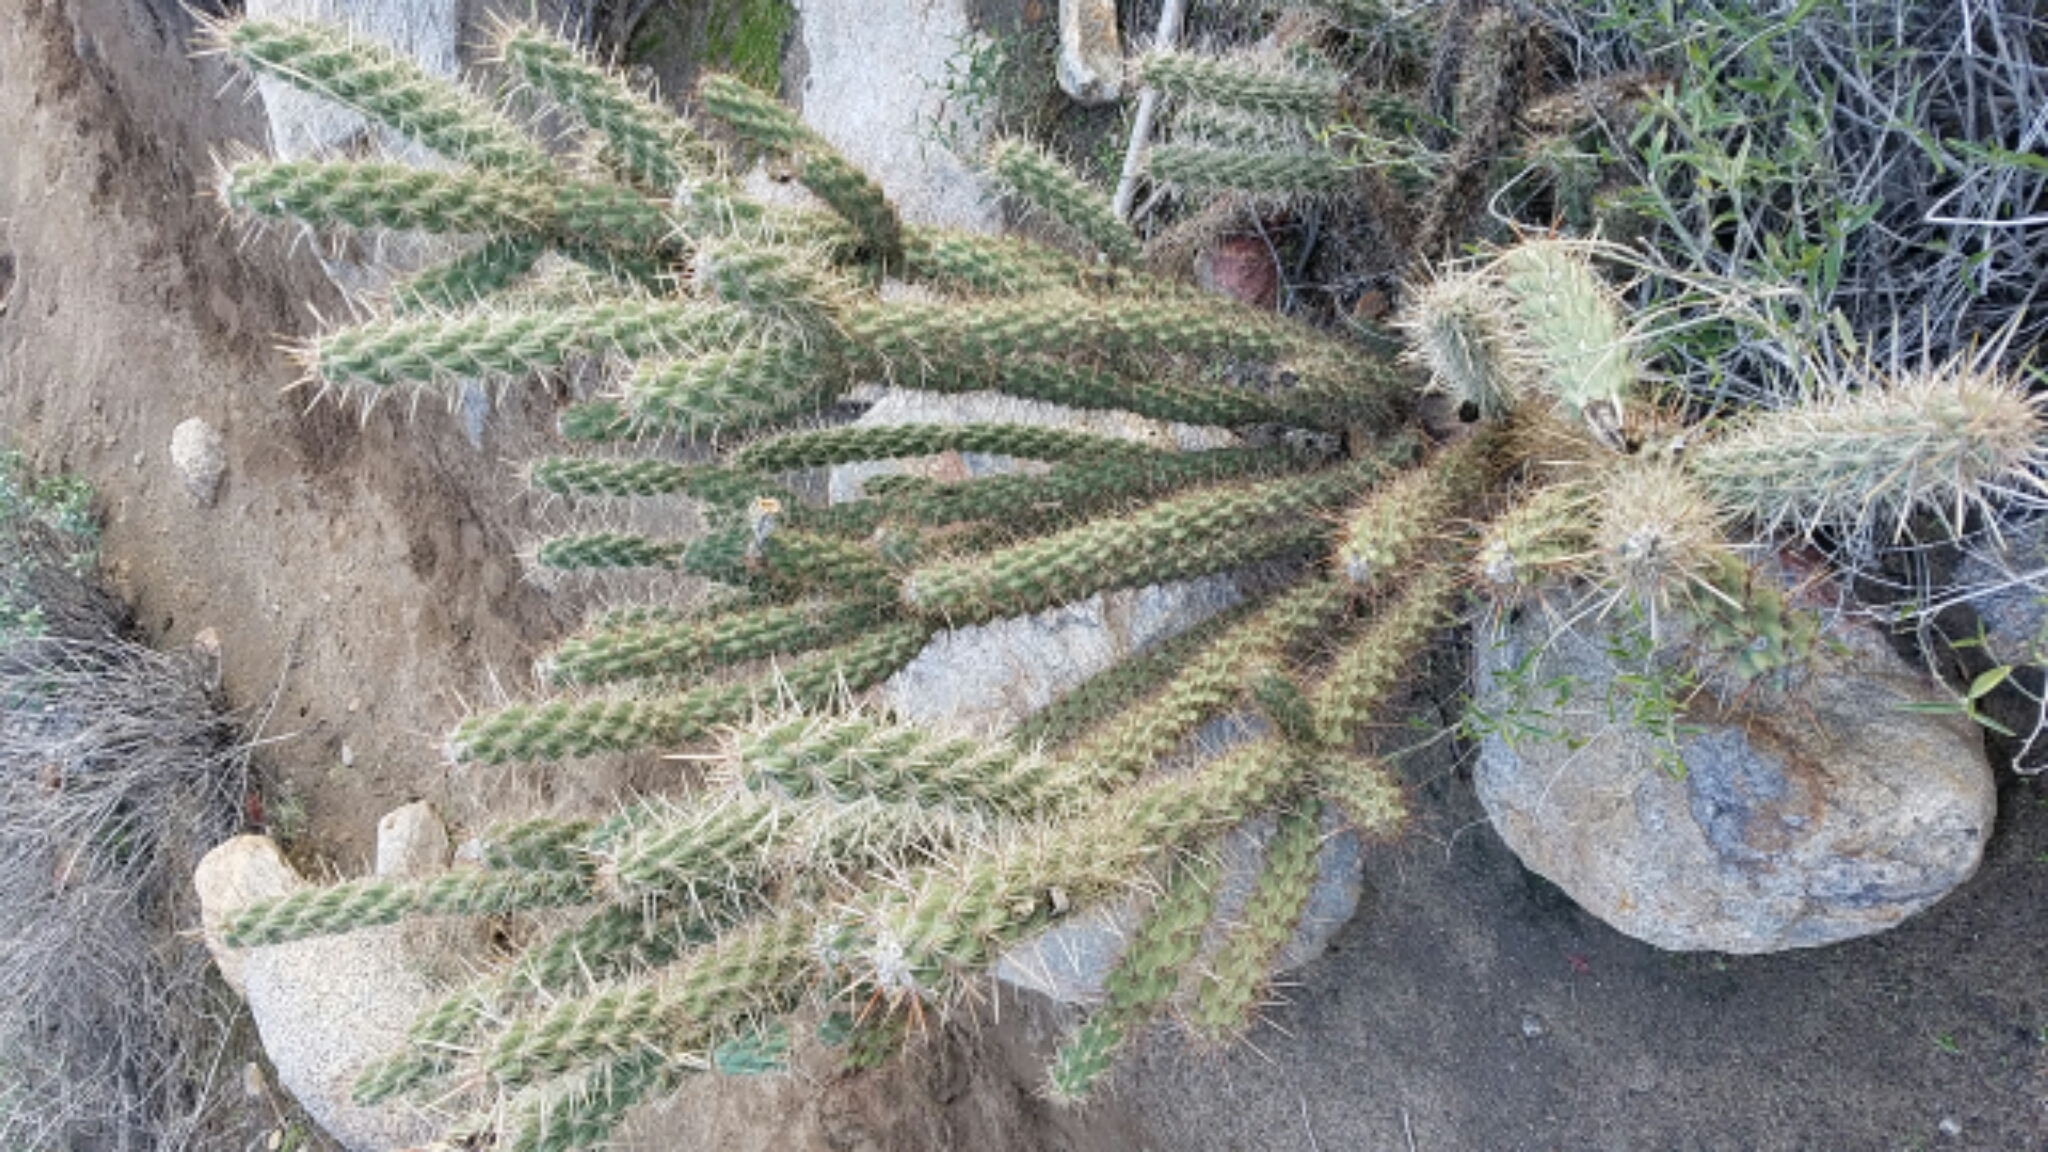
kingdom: Plantae
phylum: Tracheophyta
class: Magnoliopsida
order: Caryophyllales
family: Cactaceae
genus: Cylindropuntia
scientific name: Cylindropuntia ganderi
